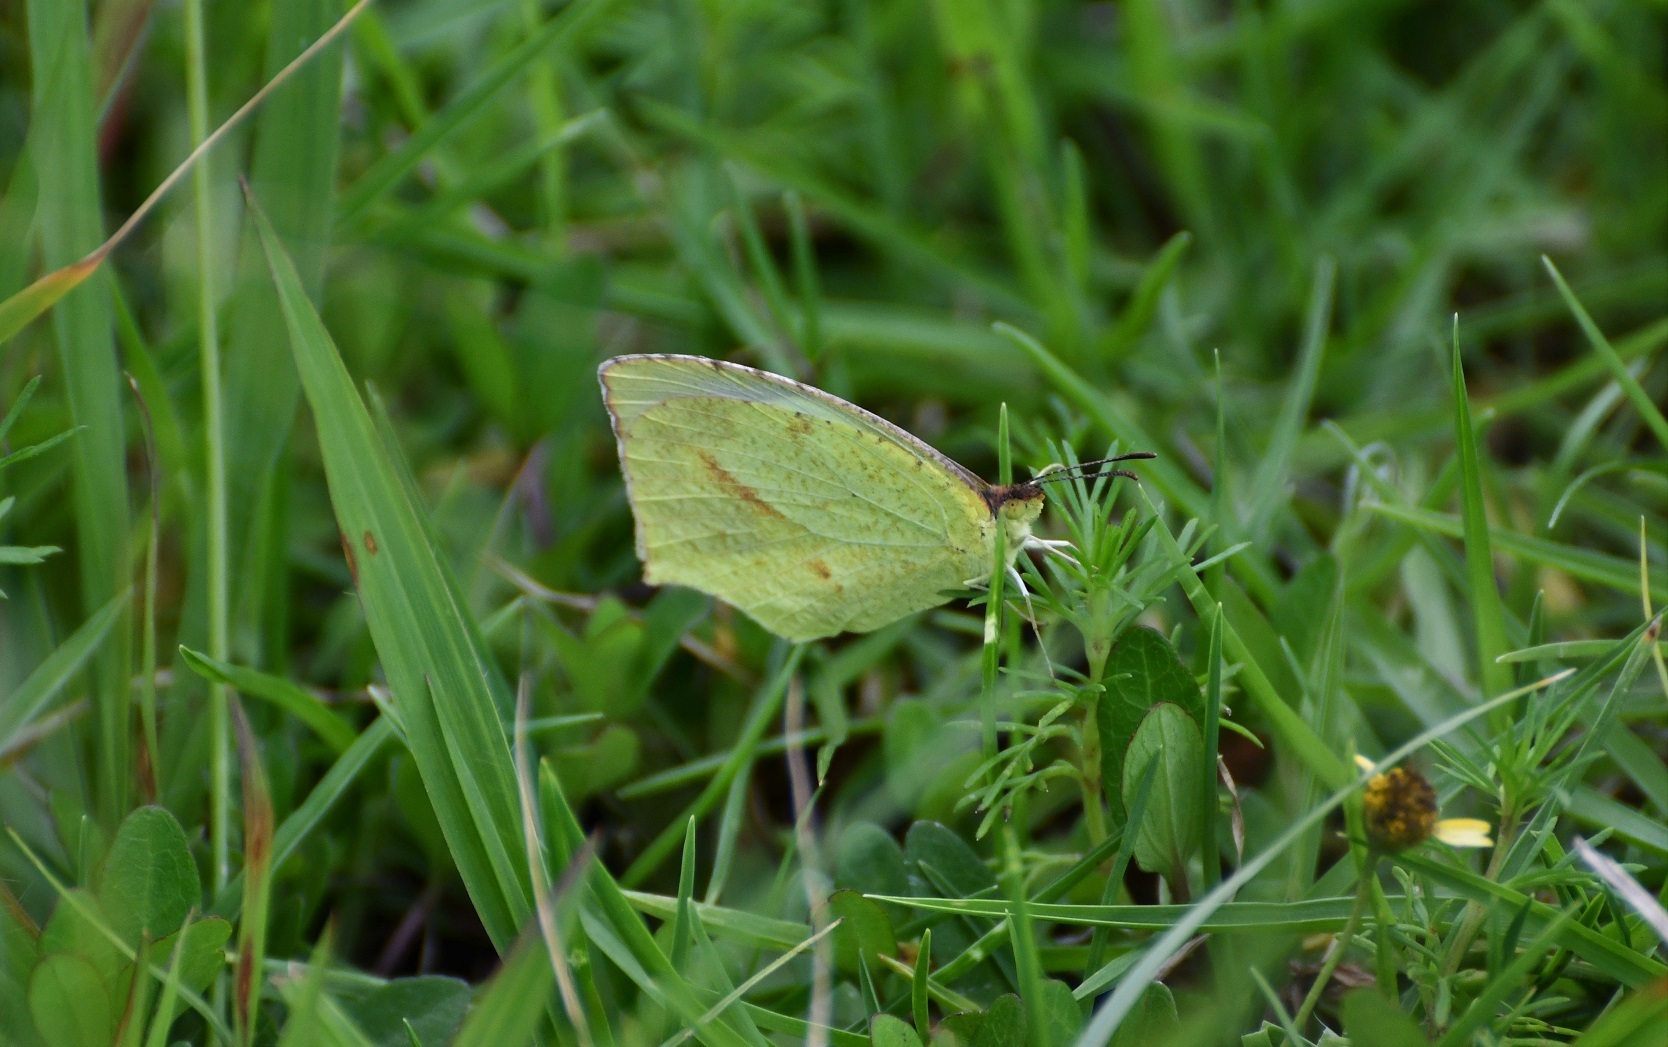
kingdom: Animalia
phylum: Arthropoda
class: Insecta
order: Lepidoptera
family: Pieridae
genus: Abaeis
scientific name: Abaeis mexicana
